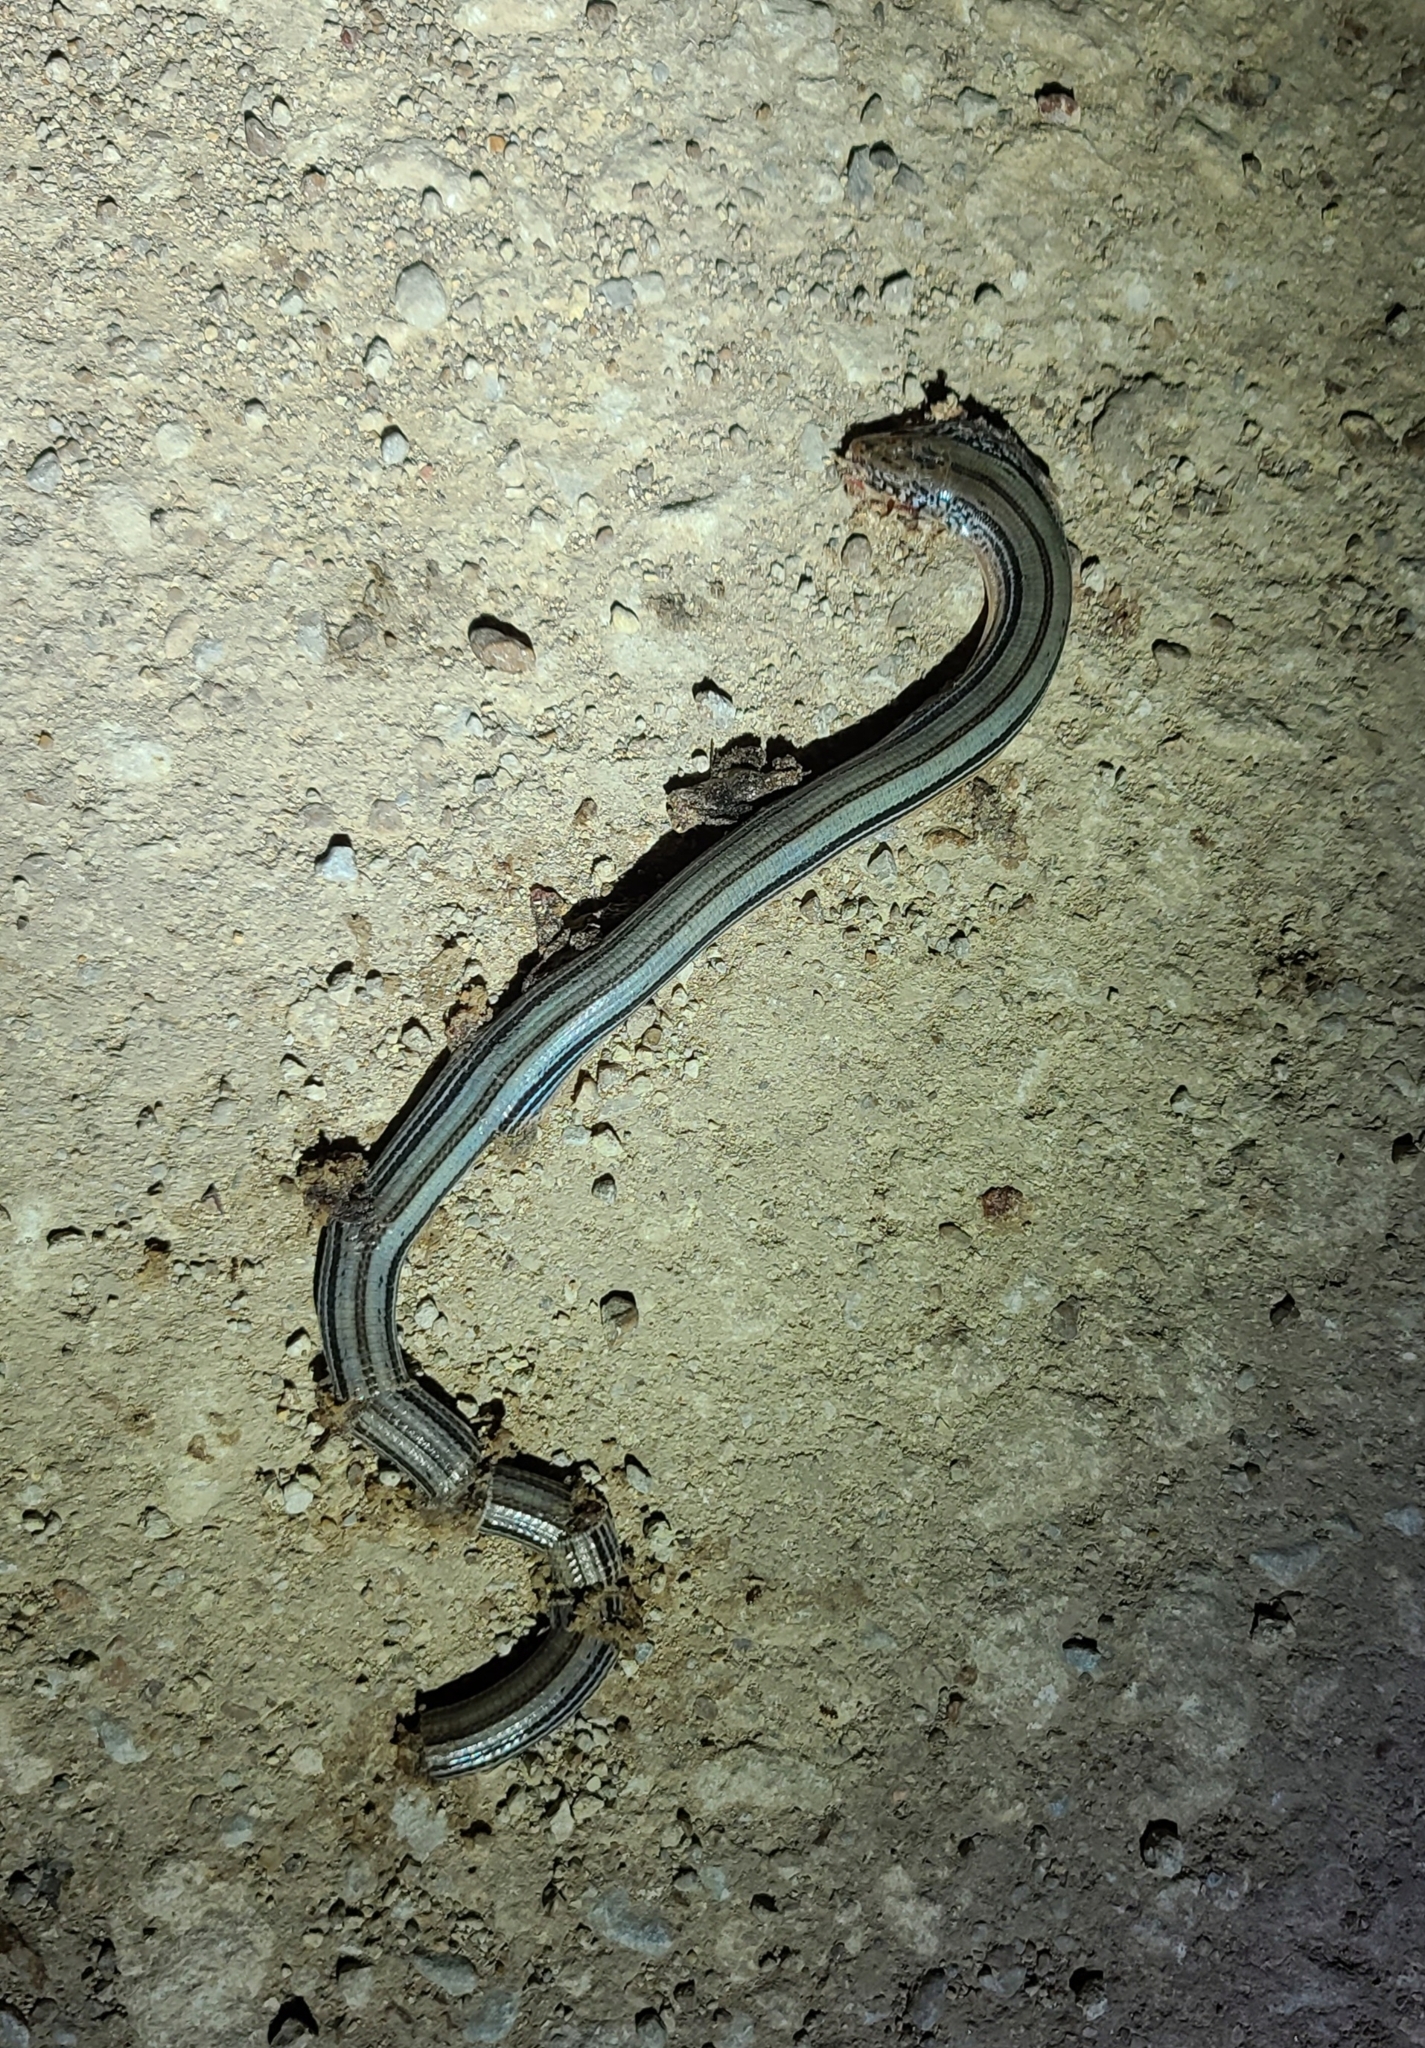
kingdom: Animalia
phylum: Chordata
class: Squamata
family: Anguidae
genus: Ophisaurus
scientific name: Ophisaurus attenuatus
